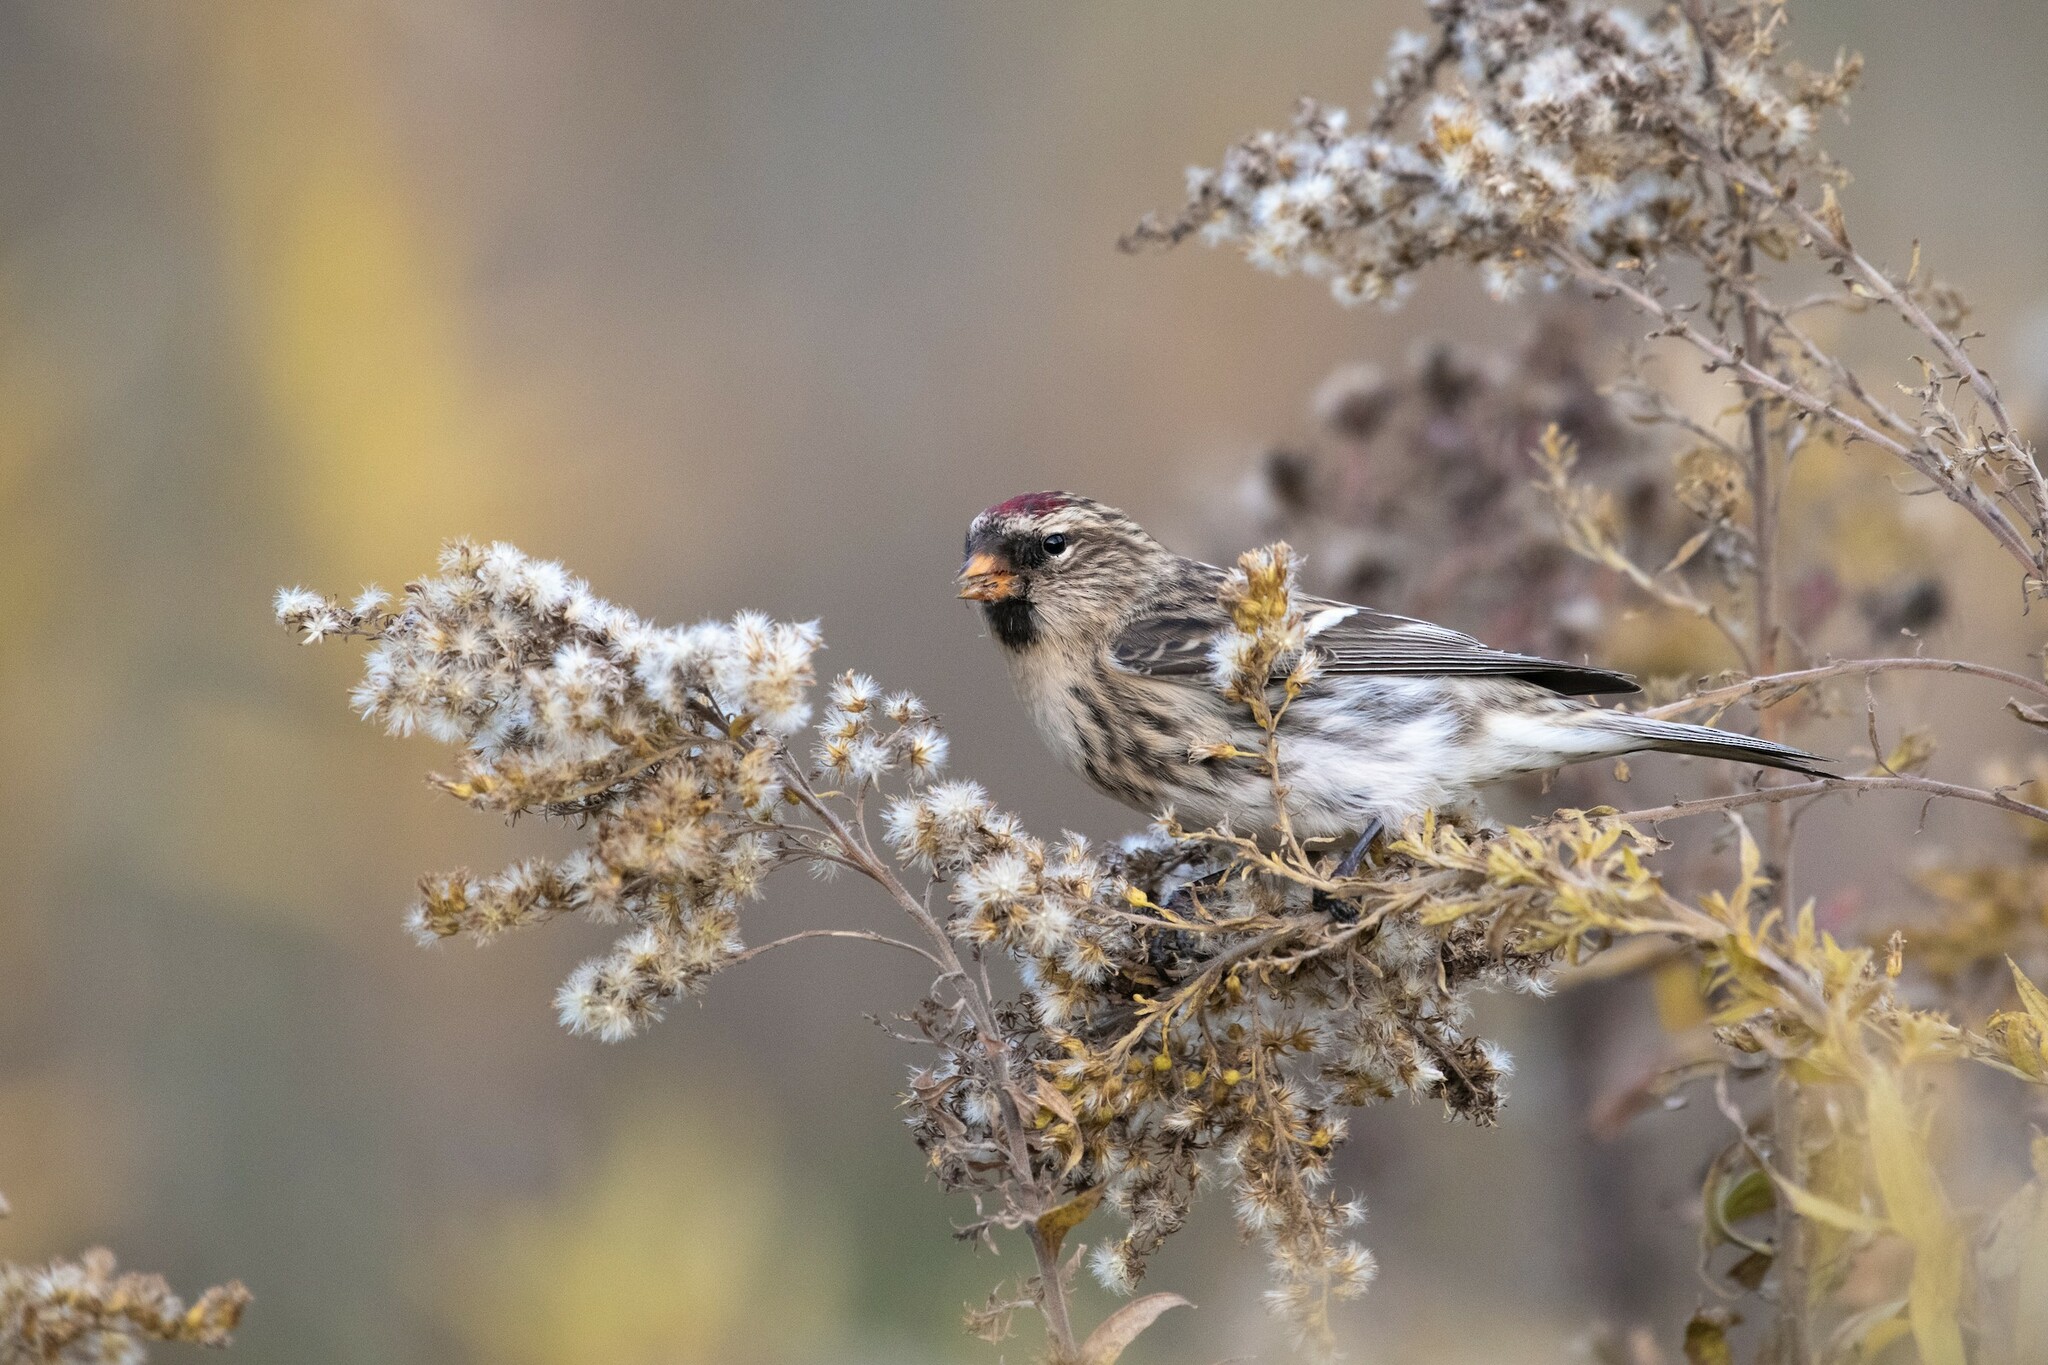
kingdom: Animalia
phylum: Chordata
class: Aves
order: Passeriformes
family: Fringillidae
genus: Acanthis
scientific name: Acanthis flammea
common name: Common redpoll
